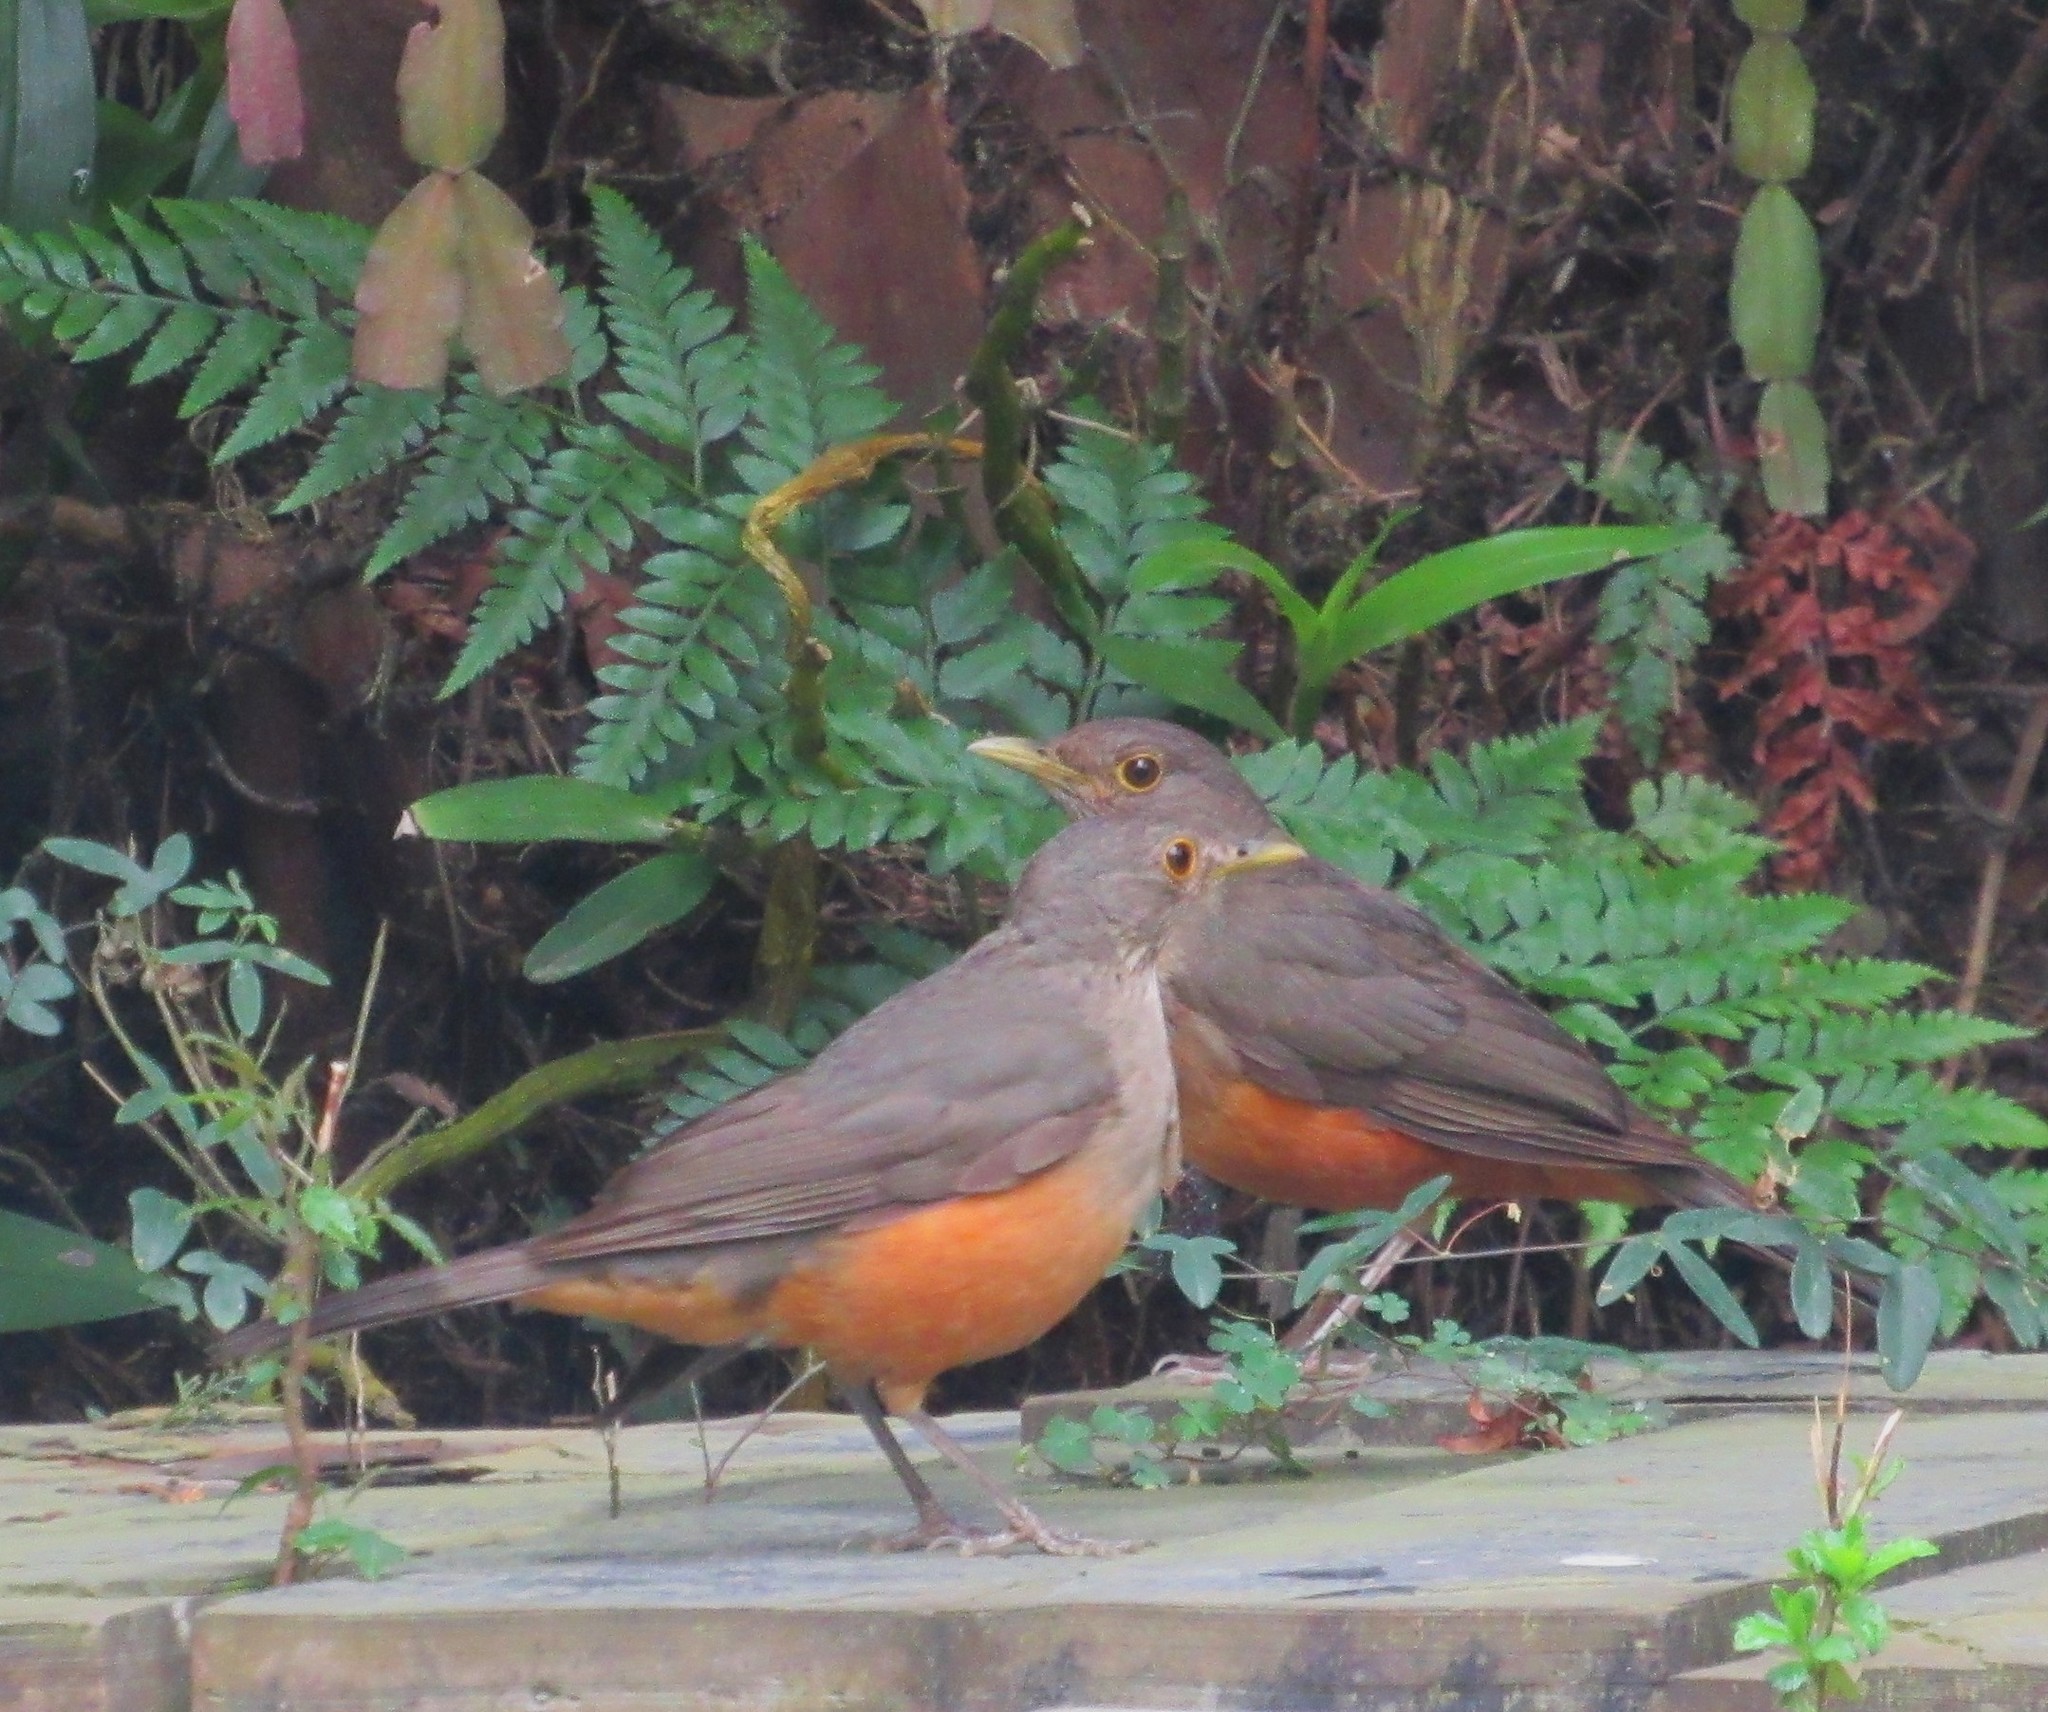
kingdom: Animalia
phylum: Chordata
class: Aves
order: Passeriformes
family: Turdidae
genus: Turdus
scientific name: Turdus rufiventris
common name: Rufous-bellied thrush
